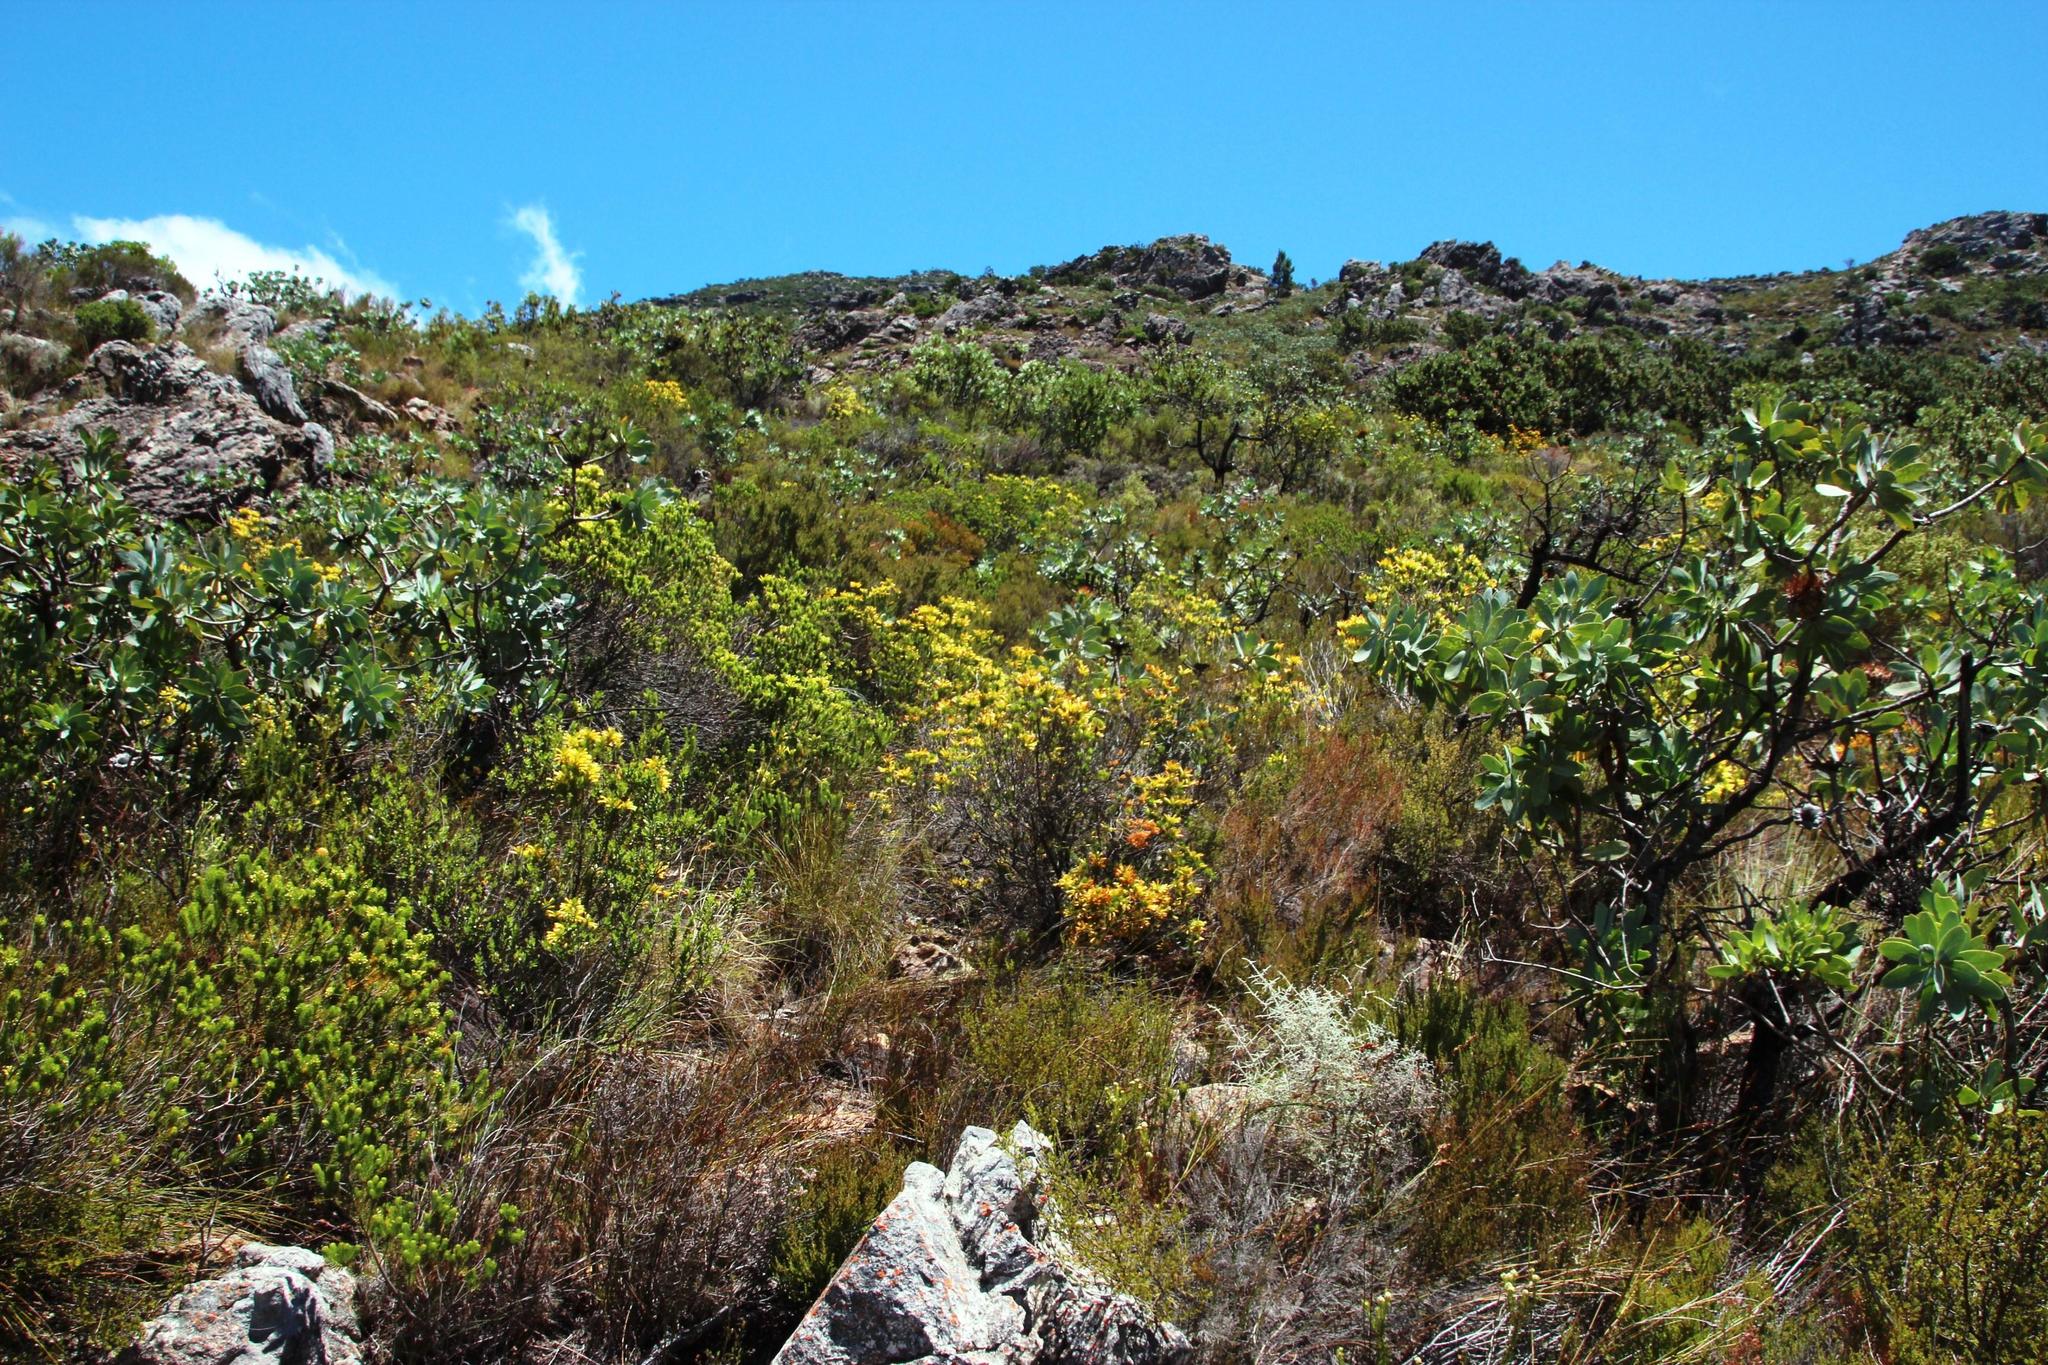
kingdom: Plantae
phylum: Tracheophyta
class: Magnoliopsida
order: Ericales
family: Ericaceae
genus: Erica
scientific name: Erica pinea
